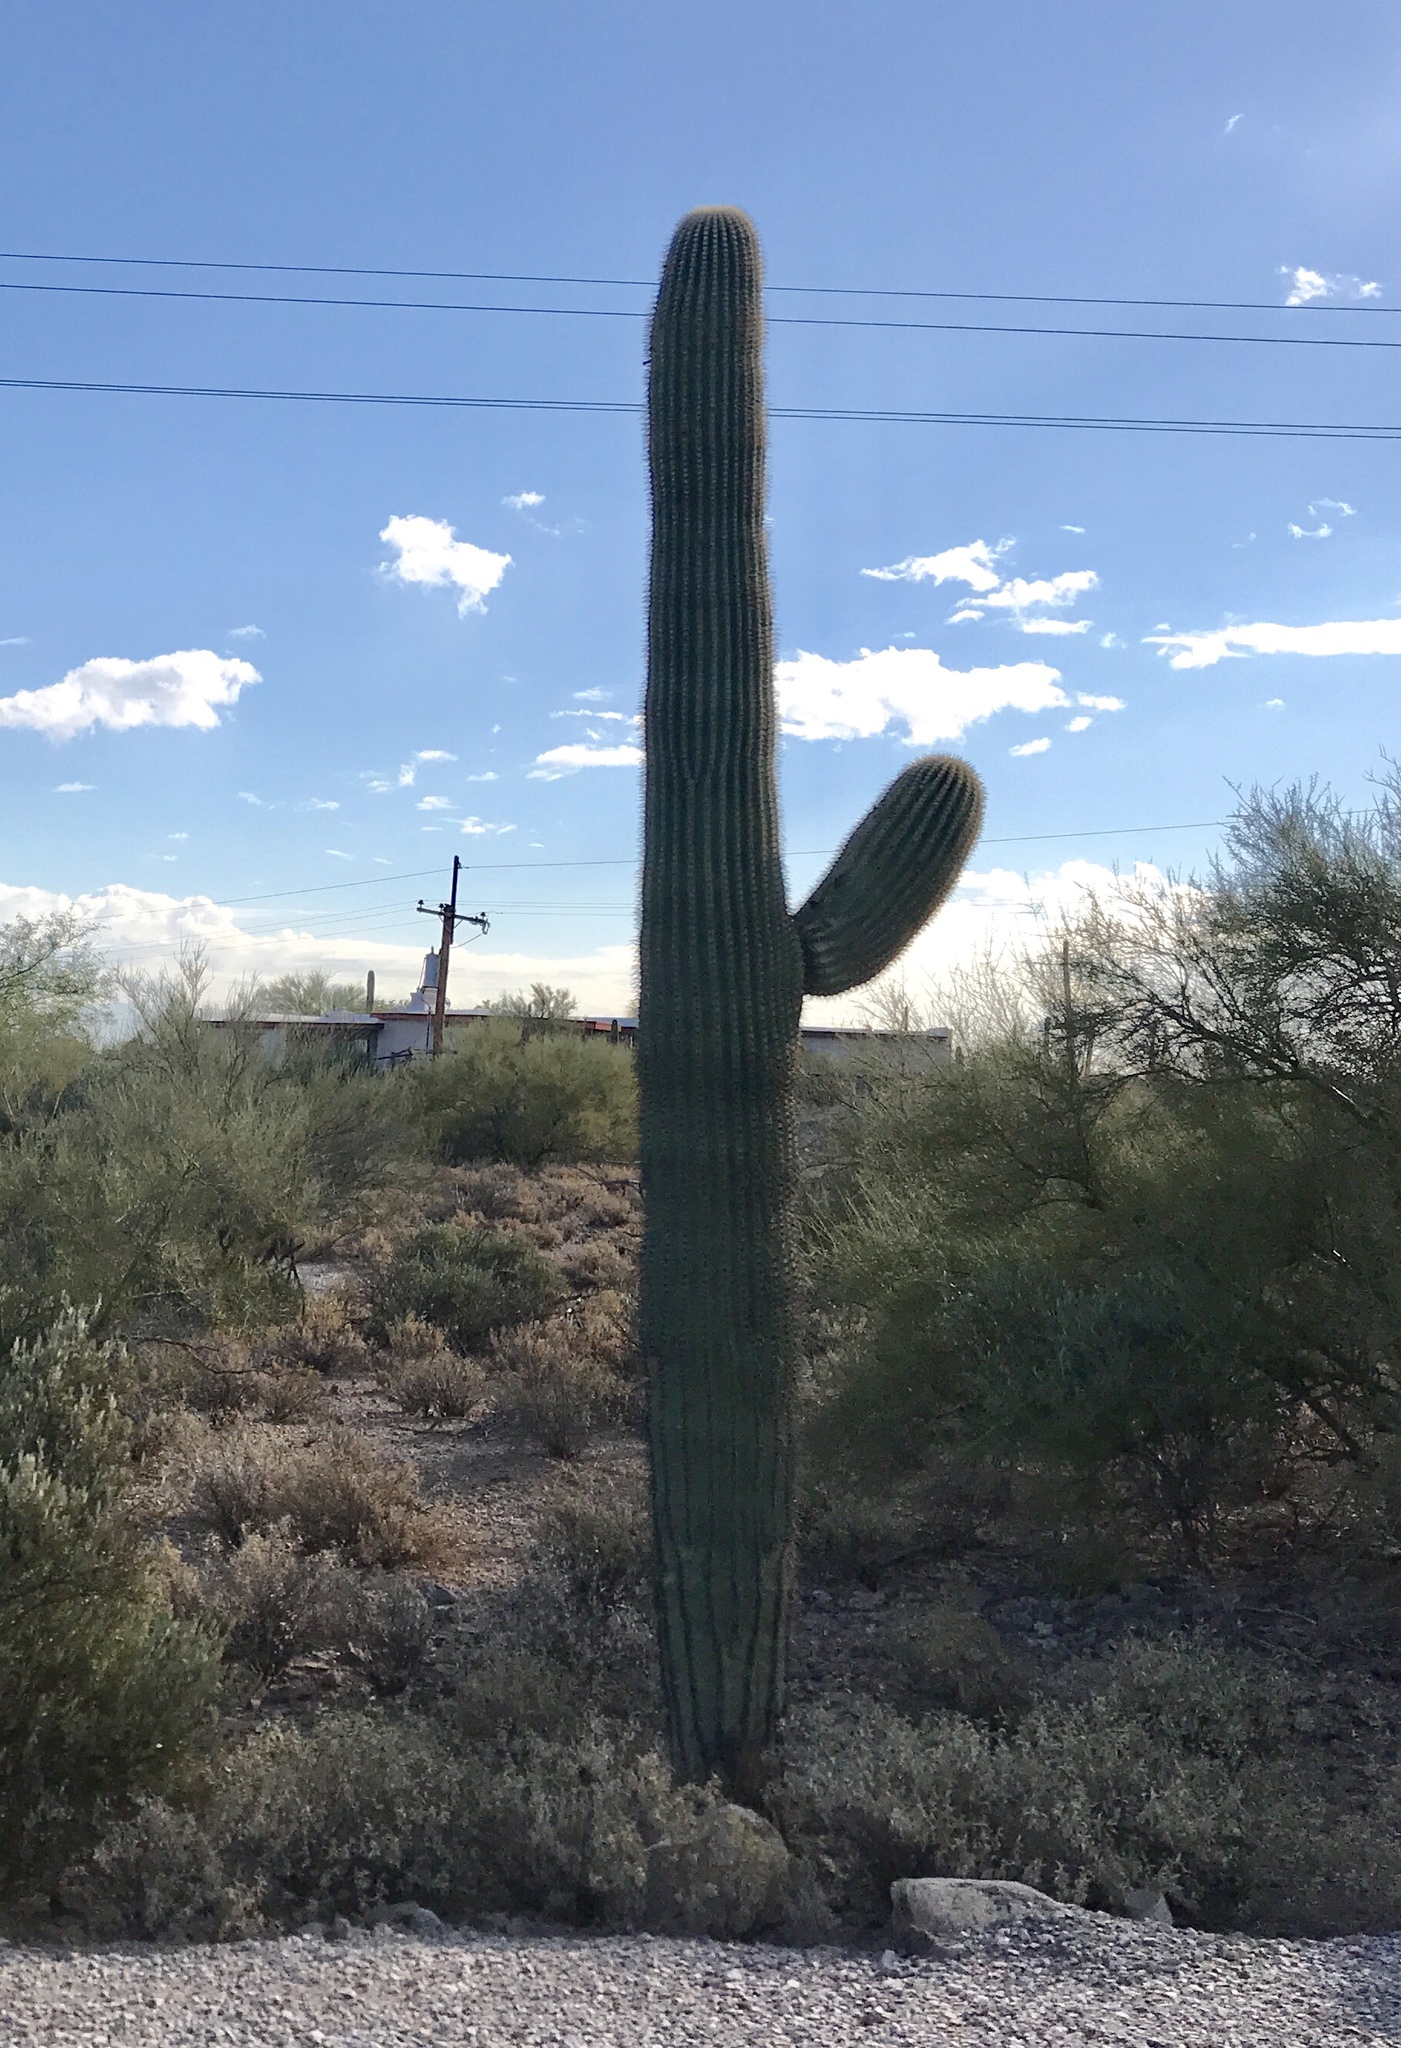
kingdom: Plantae
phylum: Tracheophyta
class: Magnoliopsida
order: Caryophyllales
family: Cactaceae
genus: Carnegiea
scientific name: Carnegiea gigantea
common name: Saguaro
